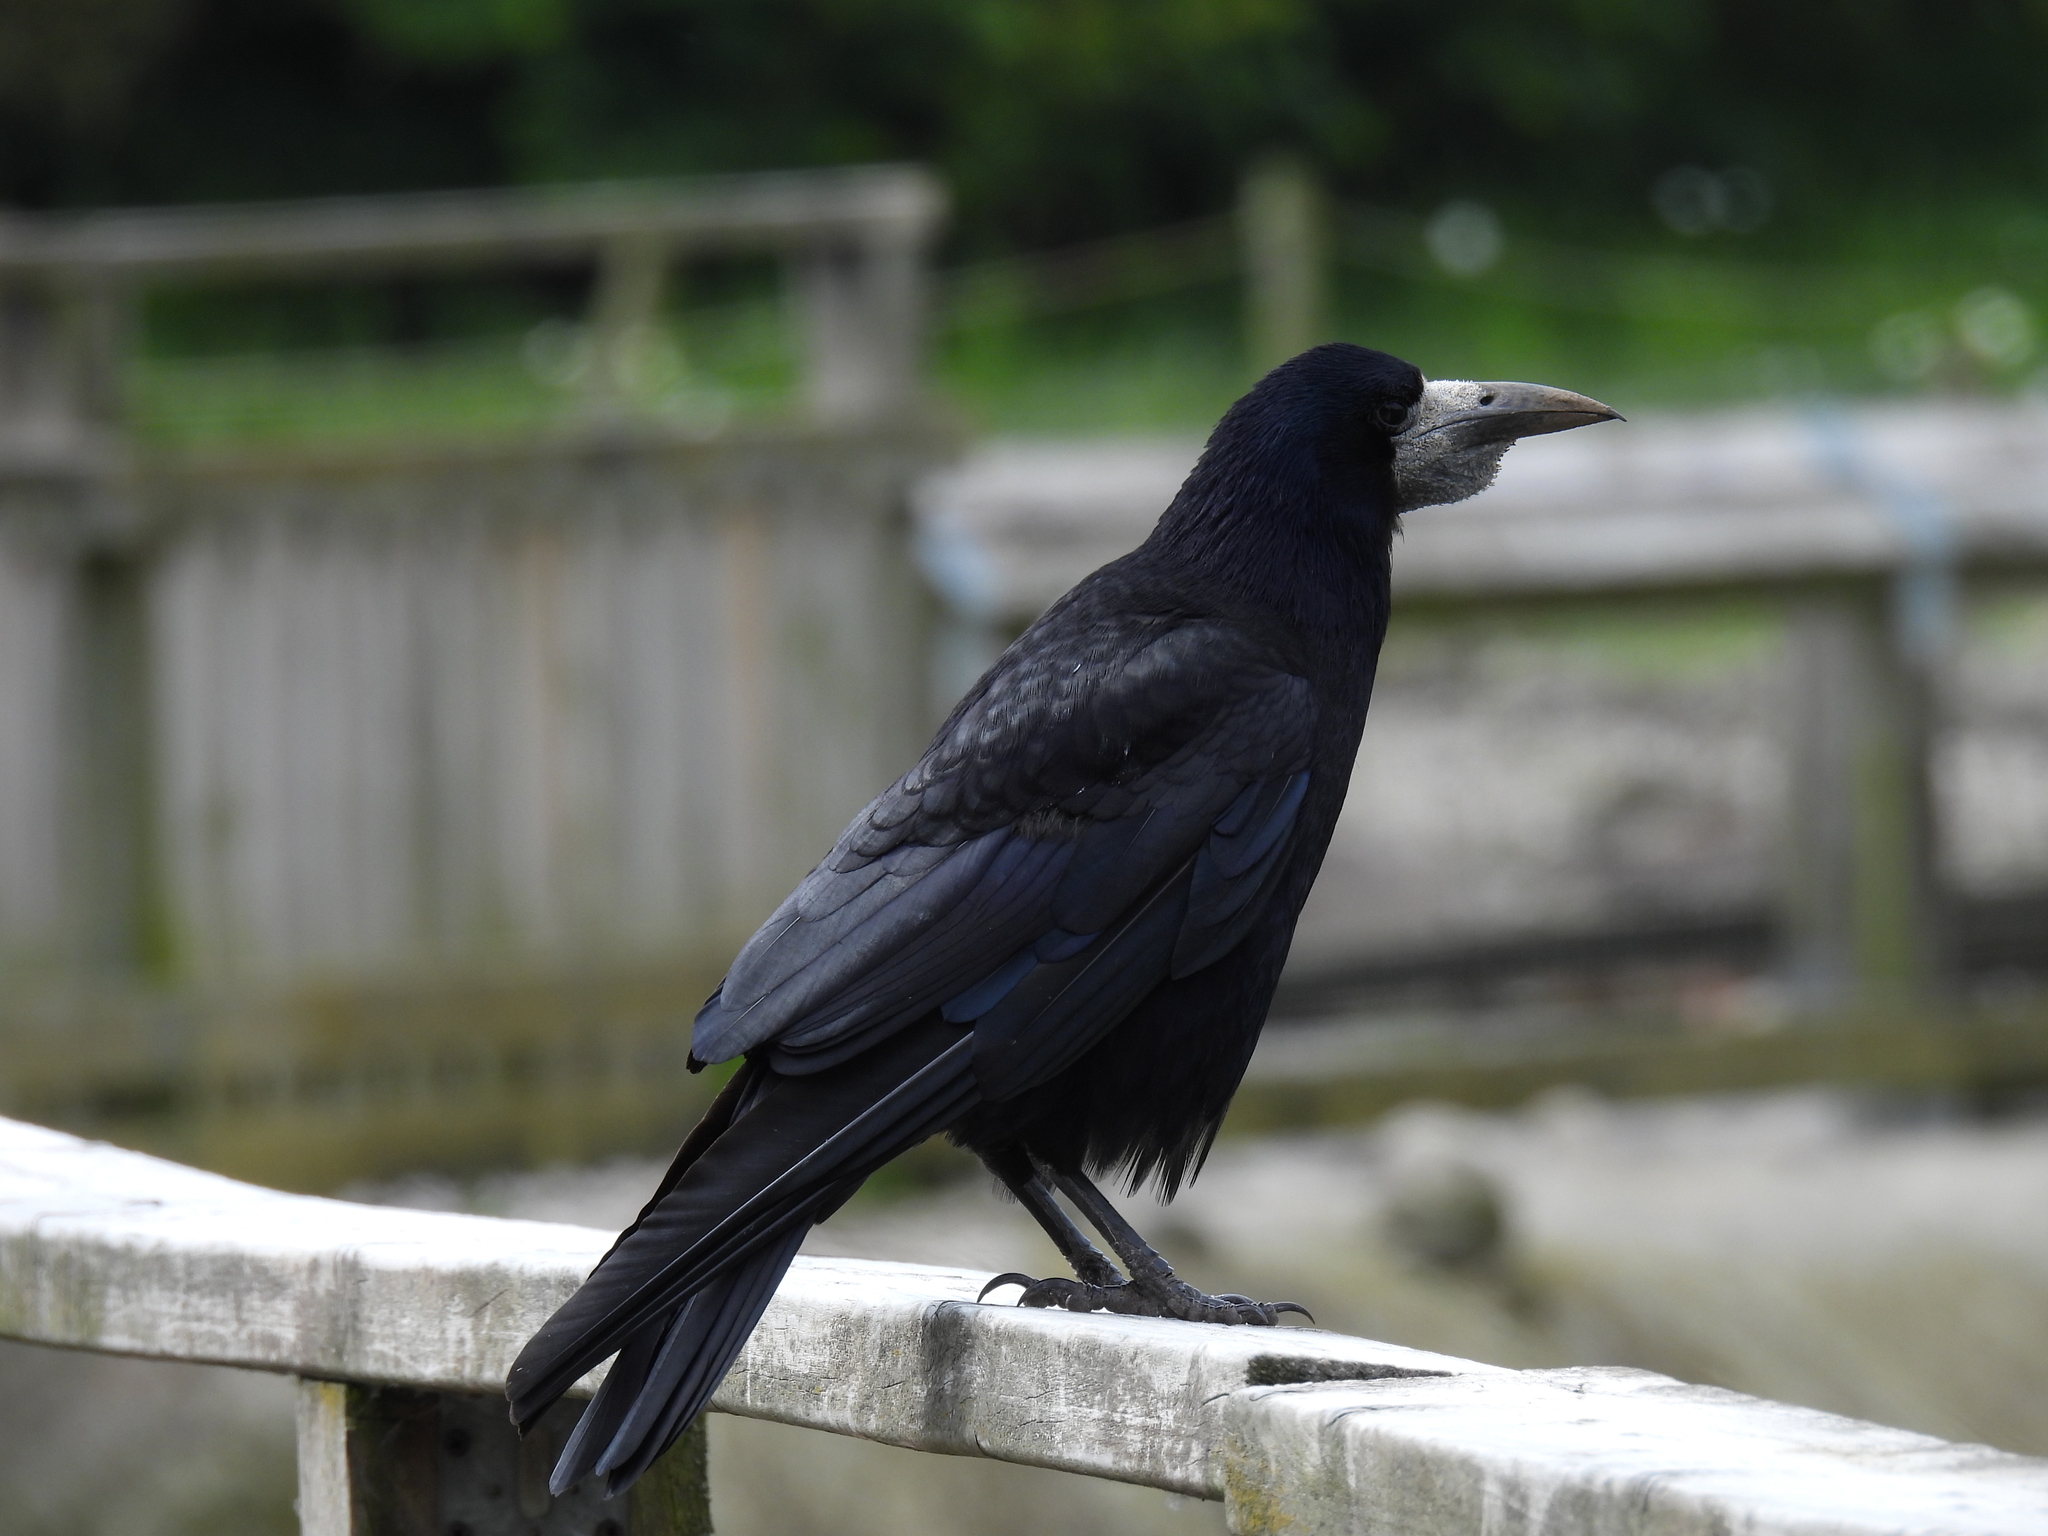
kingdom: Animalia
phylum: Chordata
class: Aves
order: Passeriformes
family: Corvidae
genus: Corvus
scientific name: Corvus frugilegus
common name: Rook
